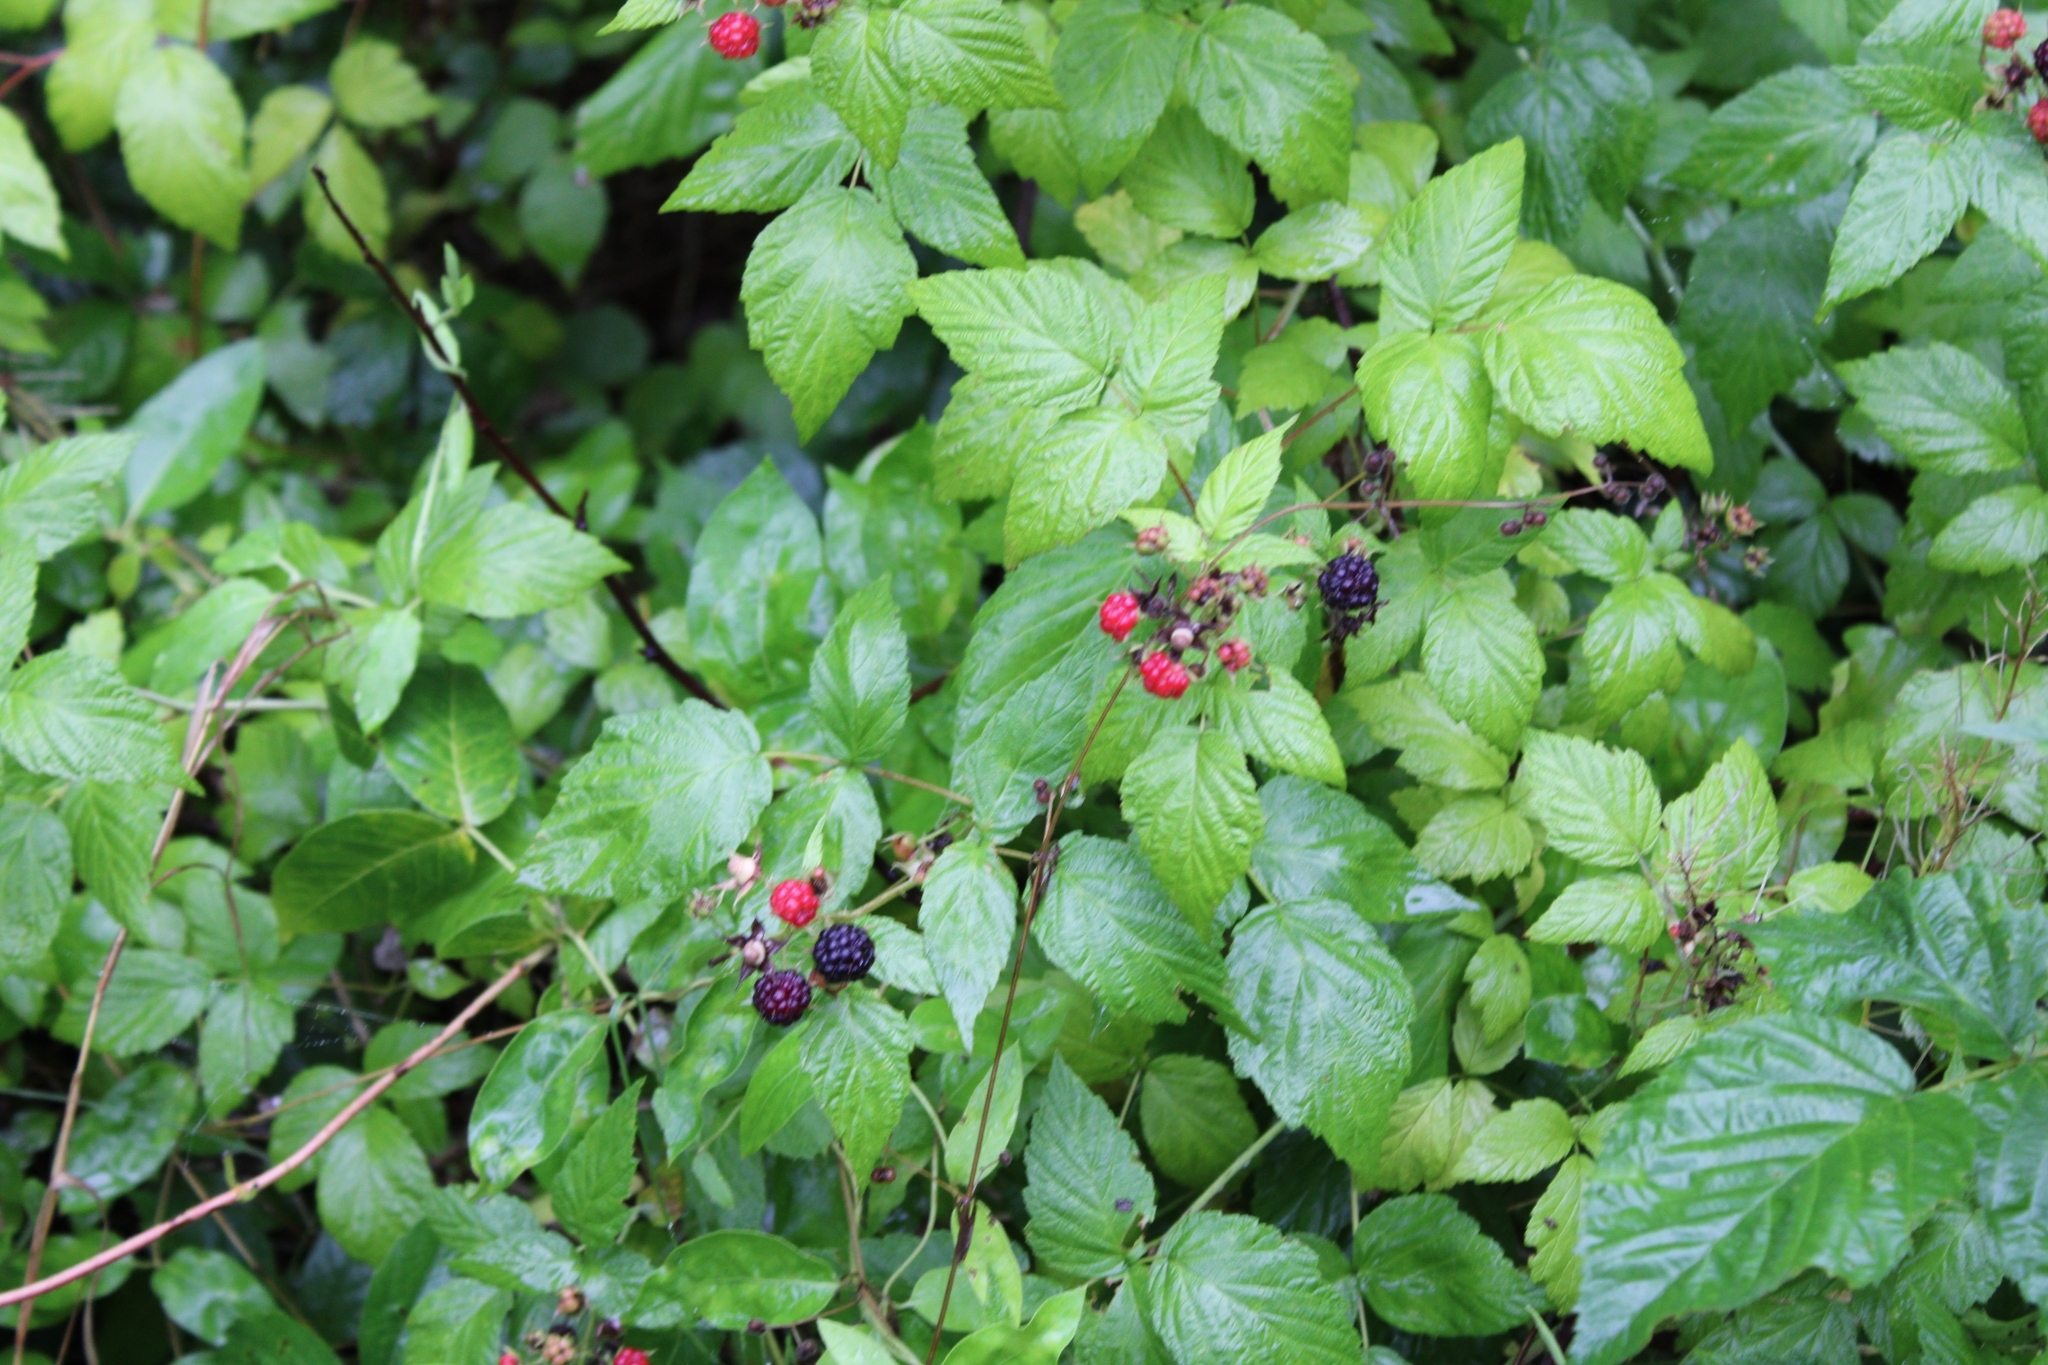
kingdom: Plantae
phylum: Tracheophyta
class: Magnoliopsida
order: Rosales
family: Rosaceae
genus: Rubus
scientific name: Rubus occidentalis
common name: Black raspberry
